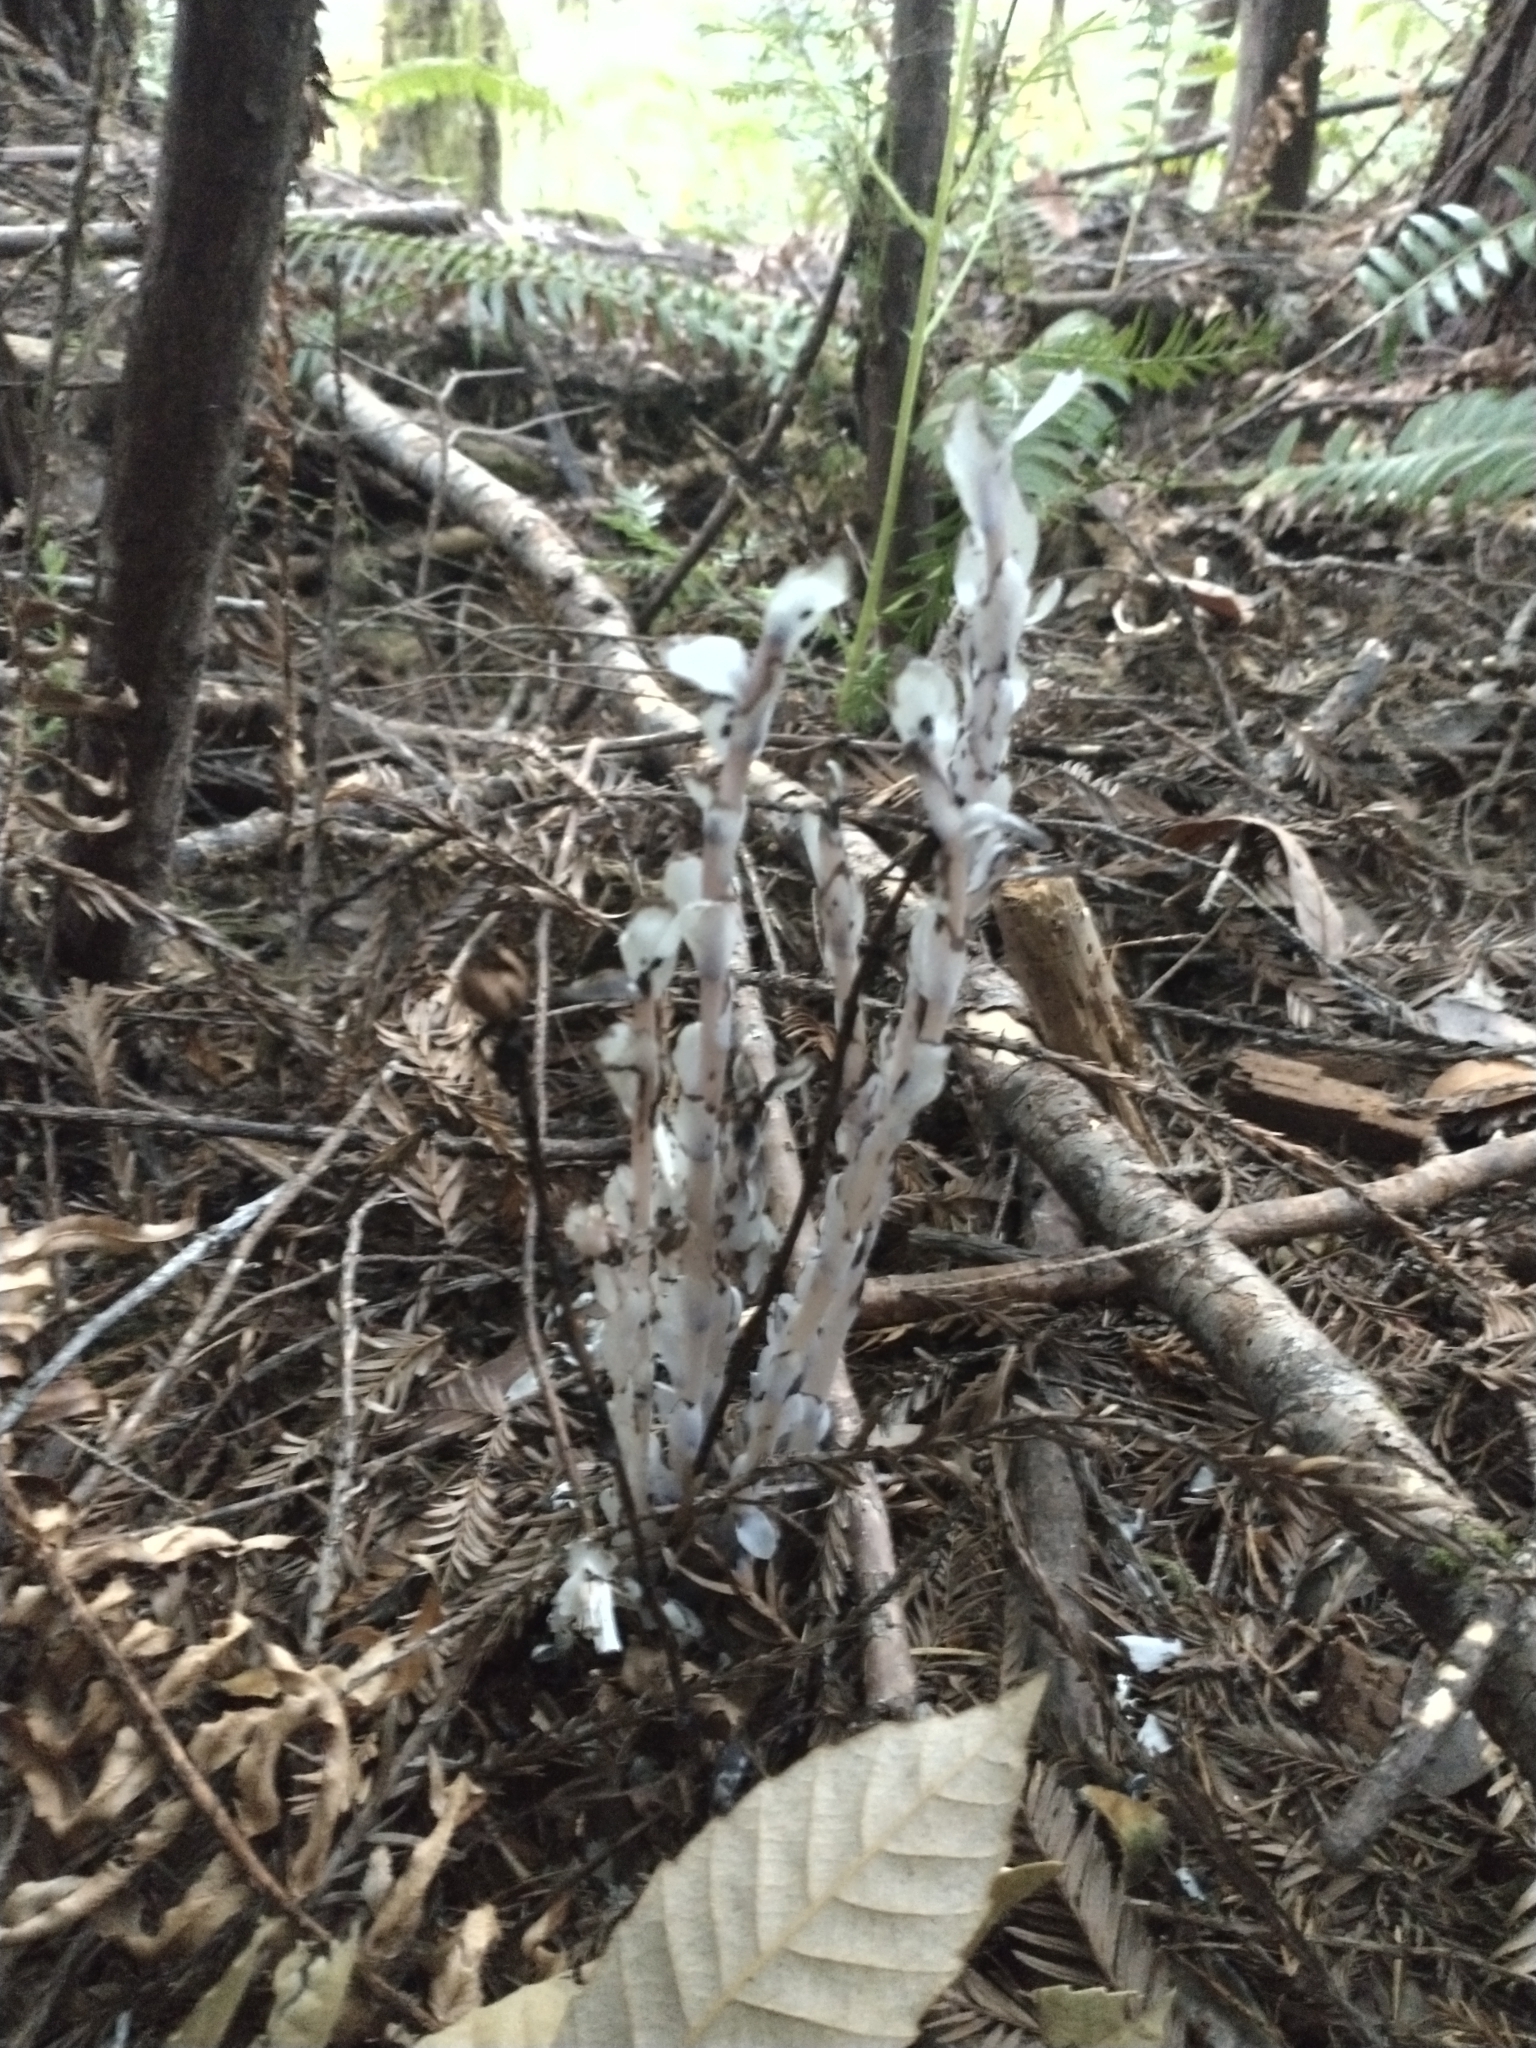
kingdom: Plantae
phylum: Tracheophyta
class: Magnoliopsida
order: Ericales
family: Ericaceae
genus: Monotropa
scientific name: Monotropa uniflora
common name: Convulsion root
